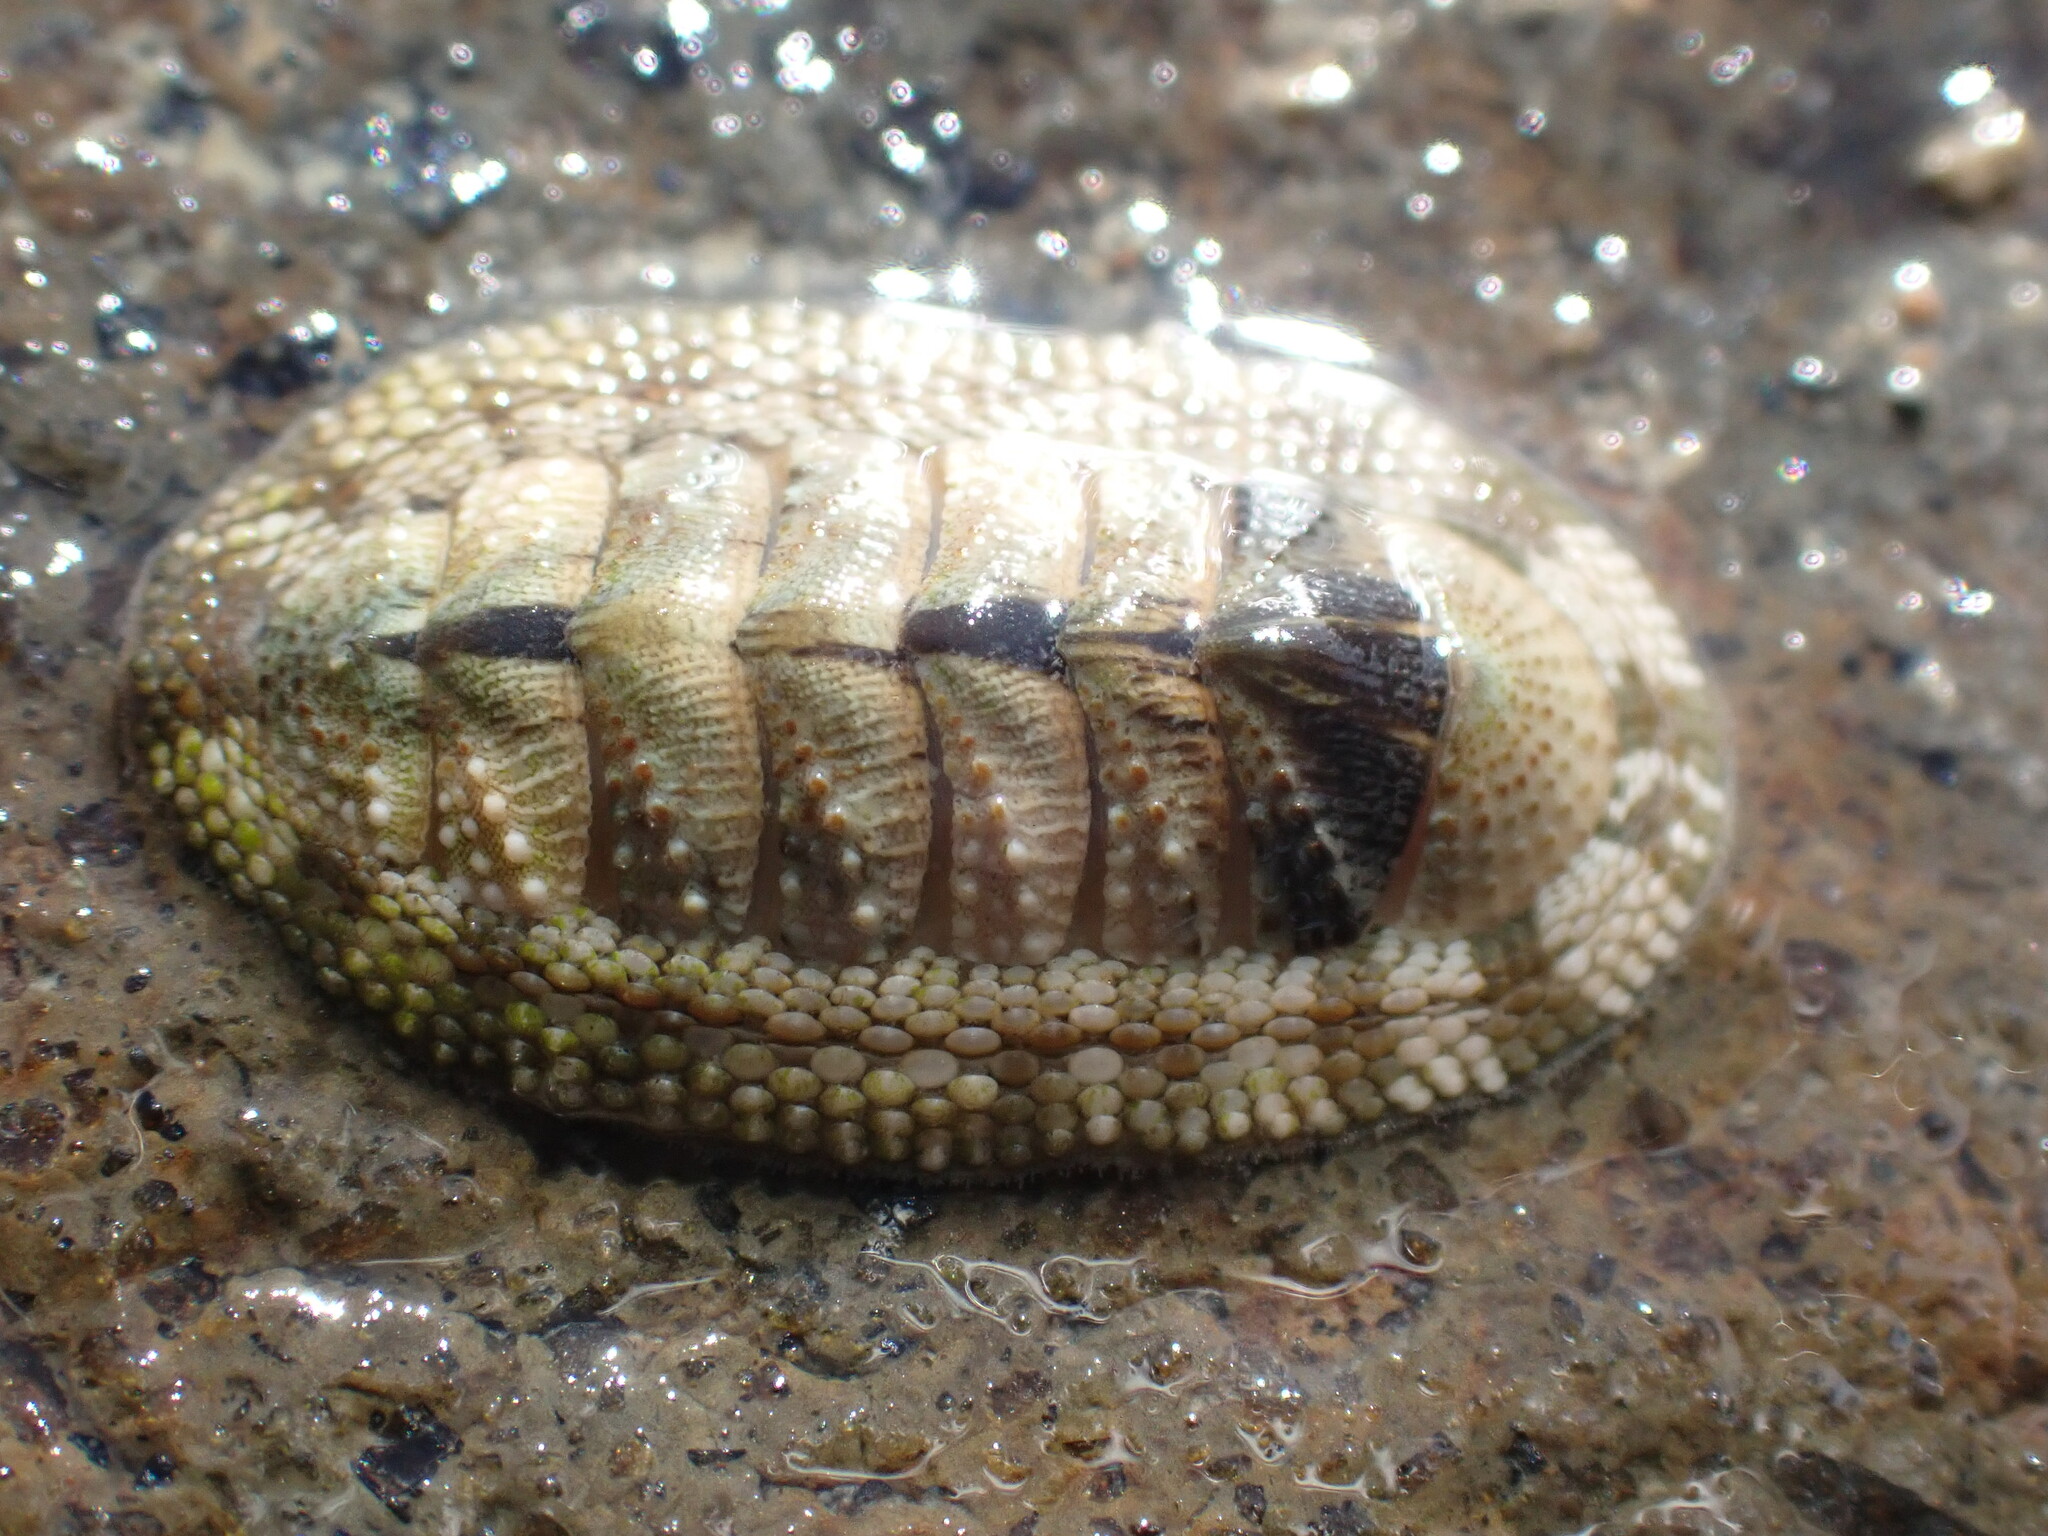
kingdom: Animalia
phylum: Mollusca
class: Polyplacophora
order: Chitonida
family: Chitonidae
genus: Sypharochiton
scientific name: Sypharochiton pelliserpentis
